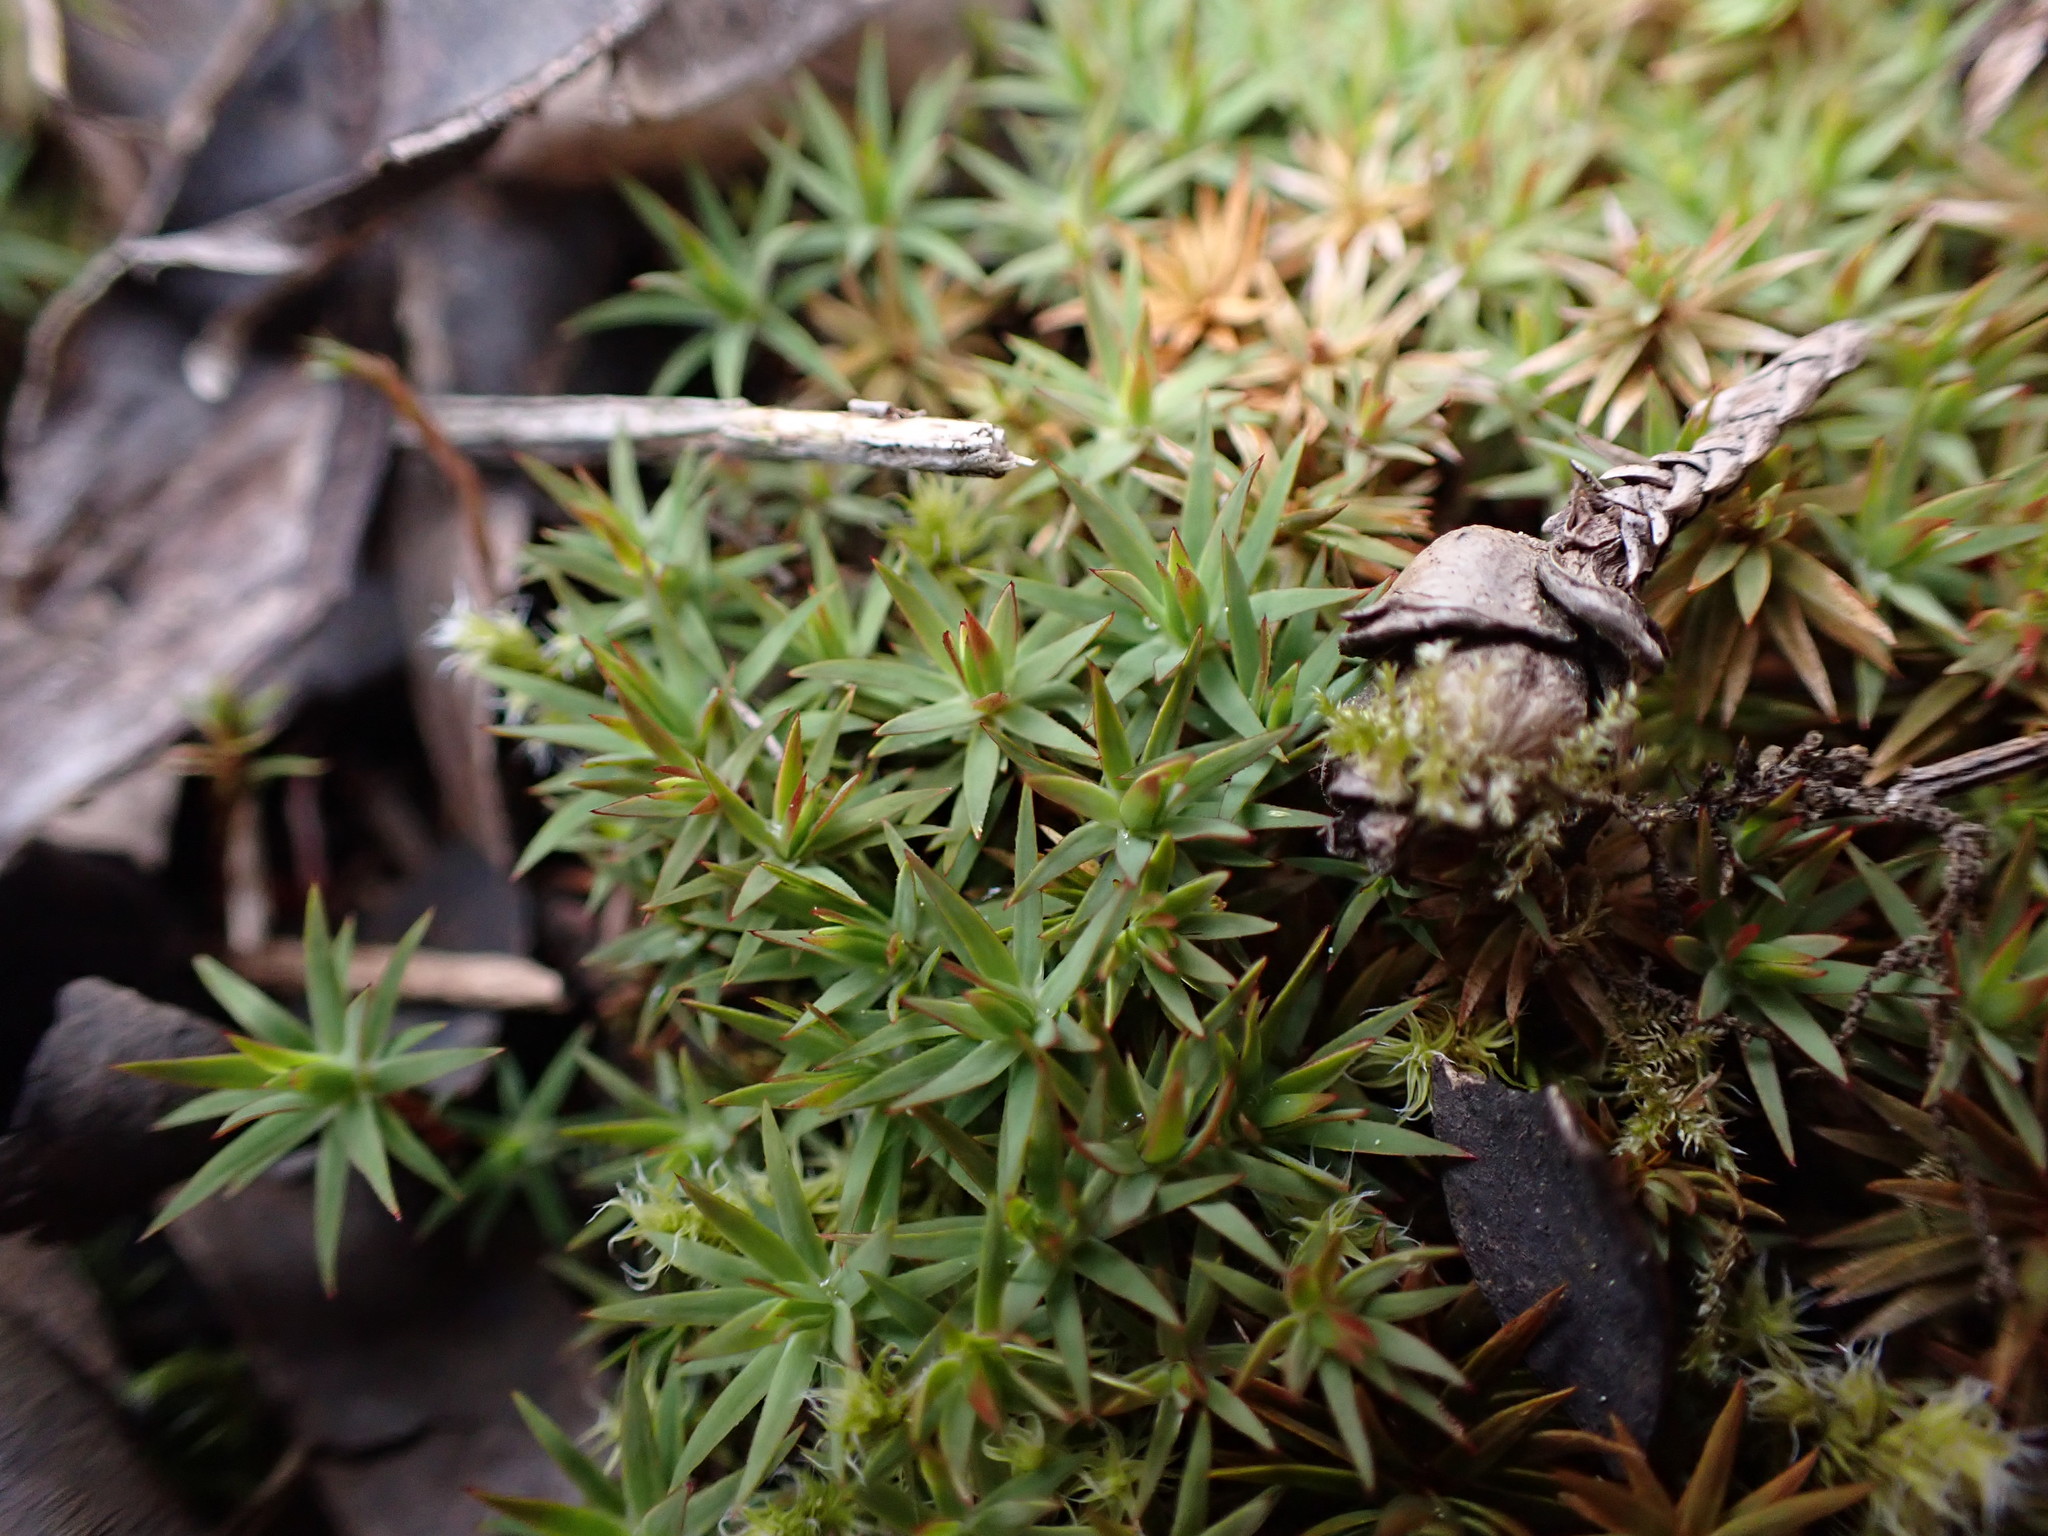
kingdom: Plantae
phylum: Bryophyta
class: Polytrichopsida
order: Polytrichales
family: Polytrichaceae
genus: Pogonatum
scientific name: Pogonatum urnigerum
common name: Urn hair moss
